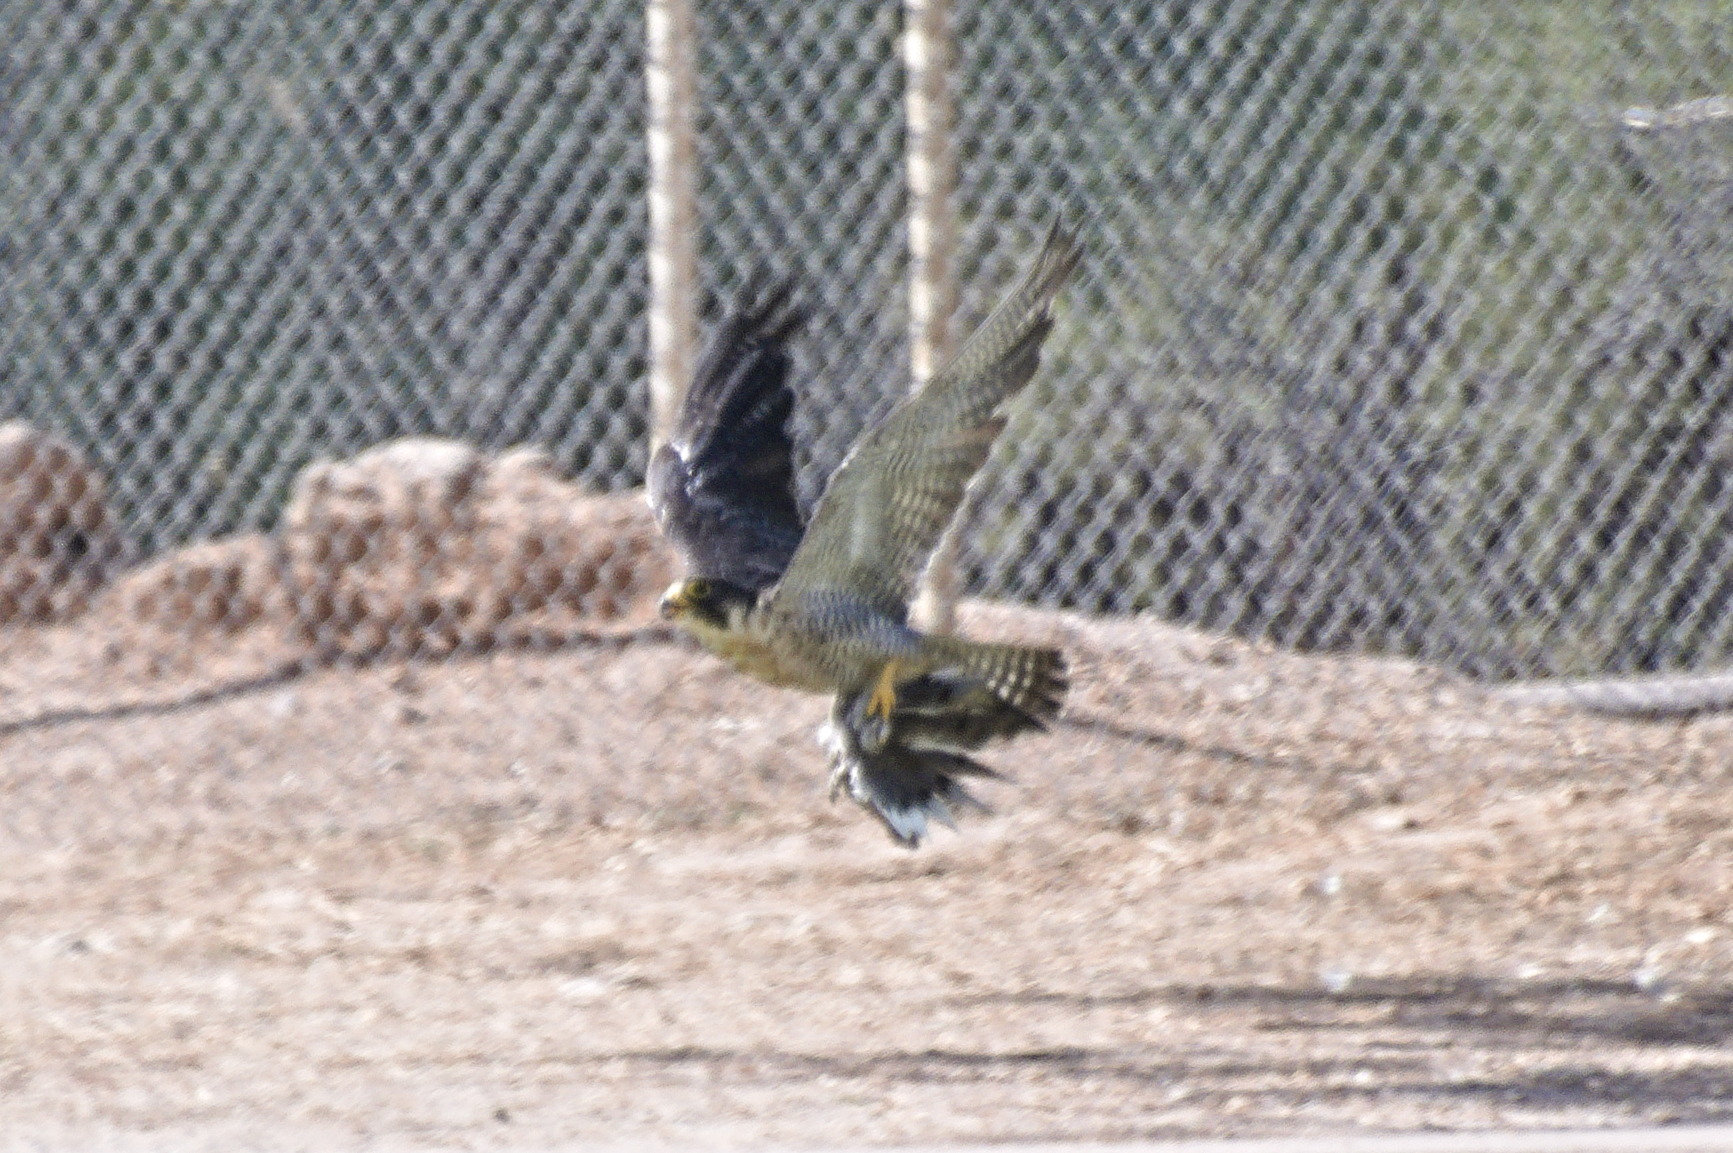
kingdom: Animalia
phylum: Chordata
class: Aves
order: Falconiformes
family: Falconidae
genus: Falco
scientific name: Falco peregrinus
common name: Peregrine falcon
